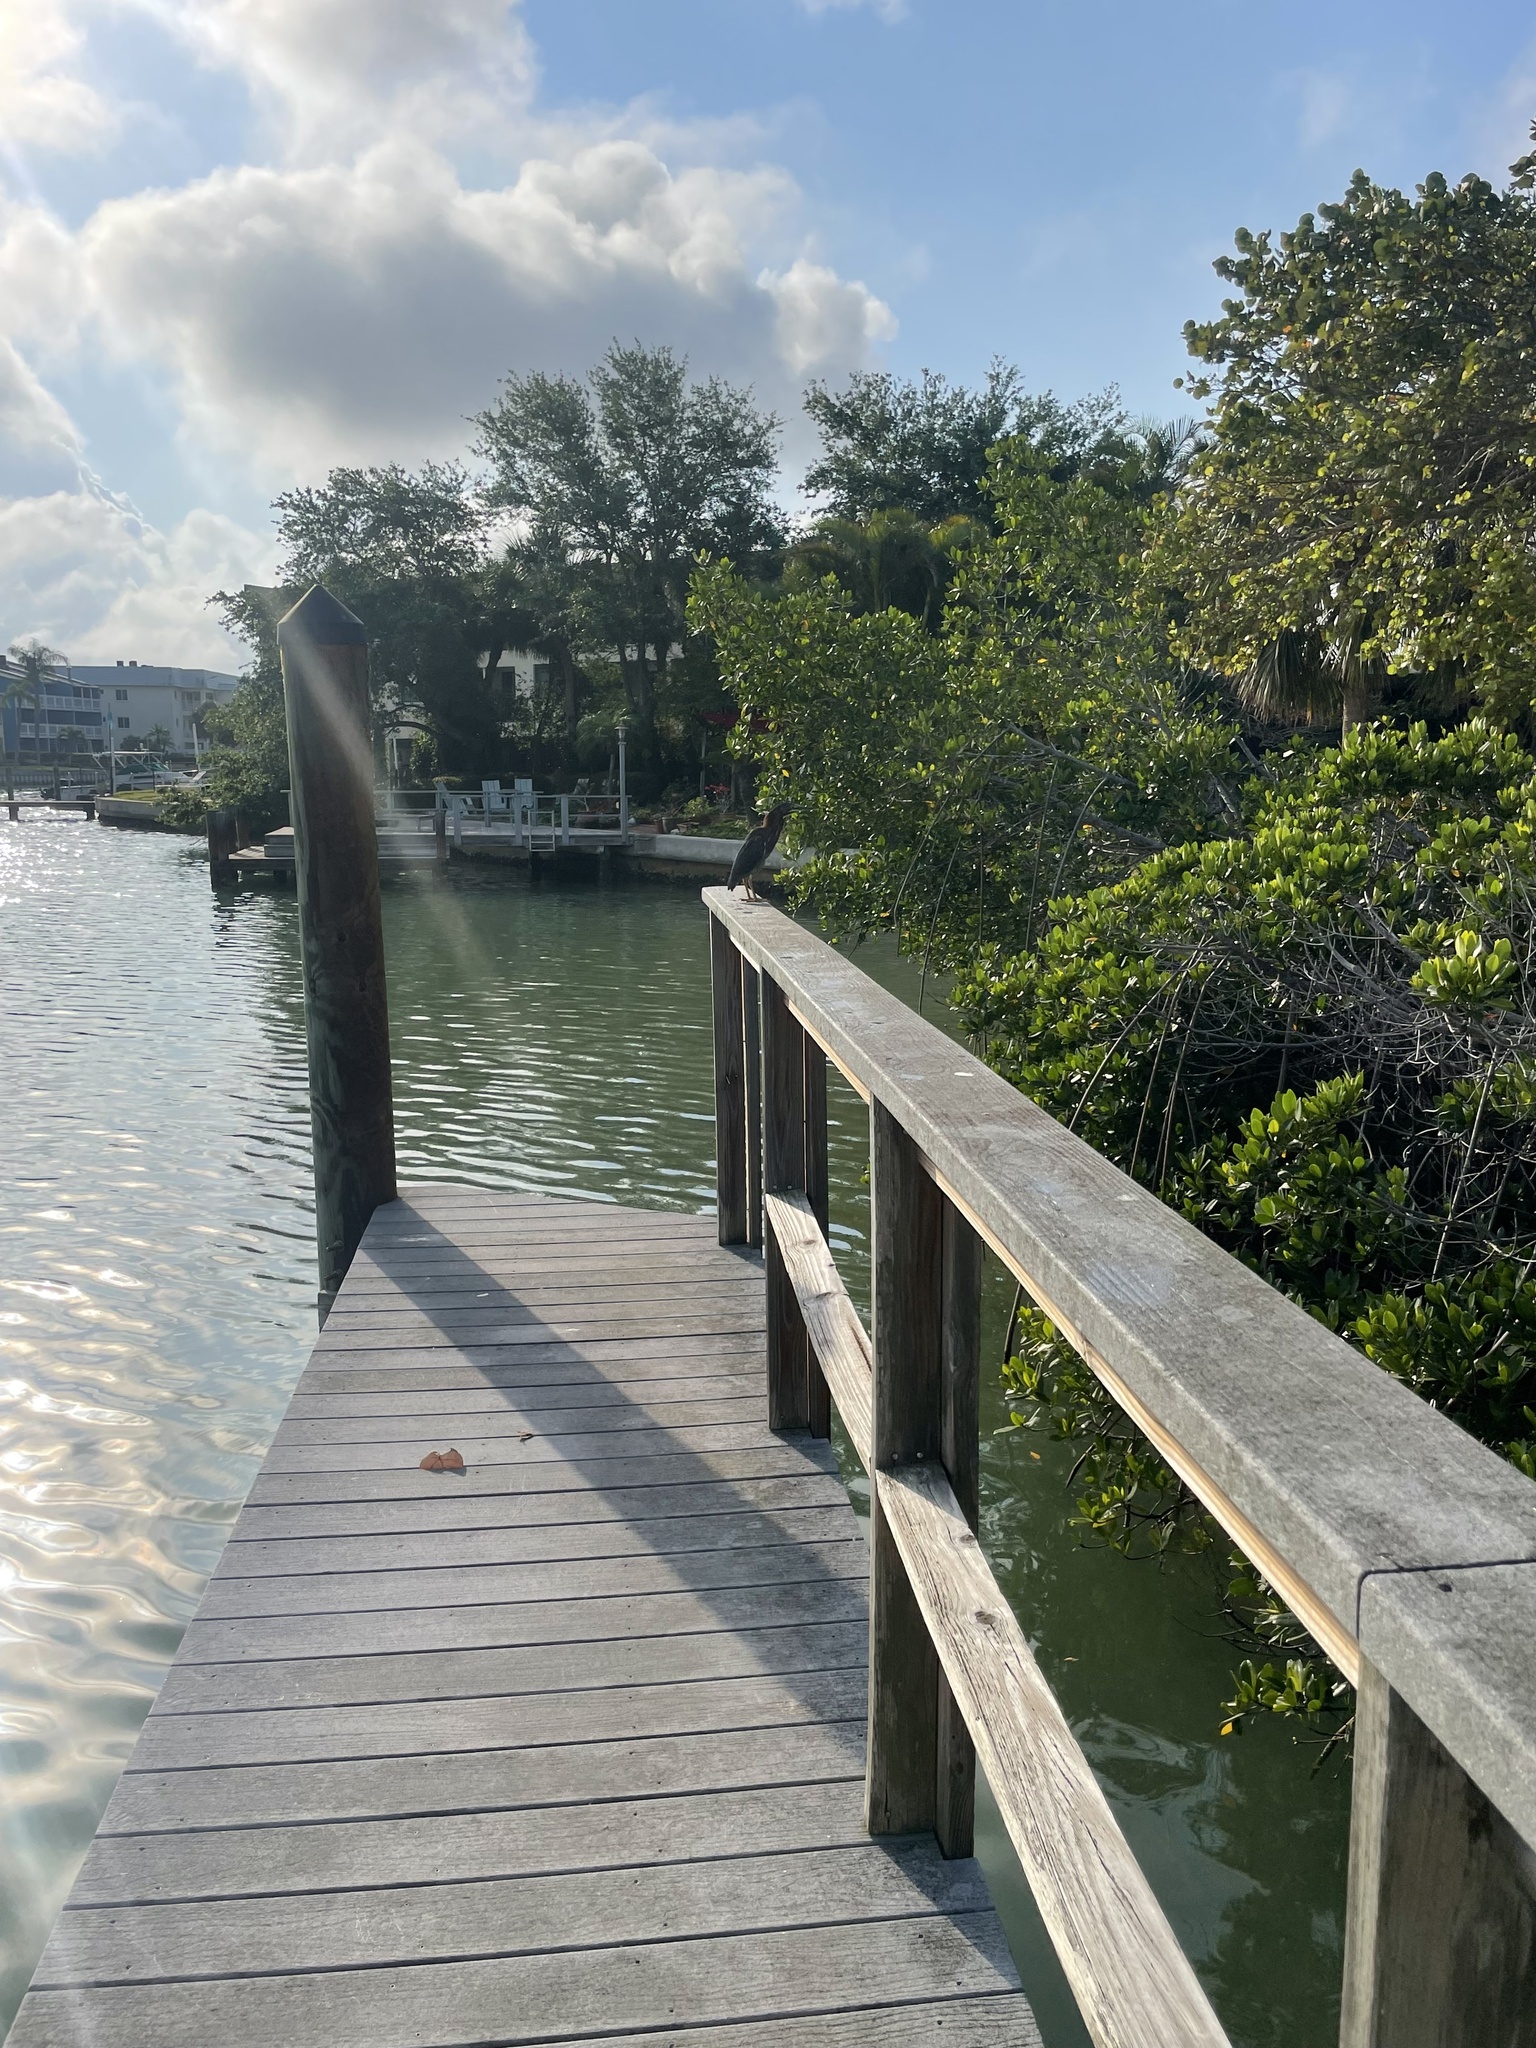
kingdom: Animalia
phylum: Chordata
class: Aves
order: Pelecaniformes
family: Ardeidae
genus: Butorides
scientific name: Butorides virescens
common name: Green heron
